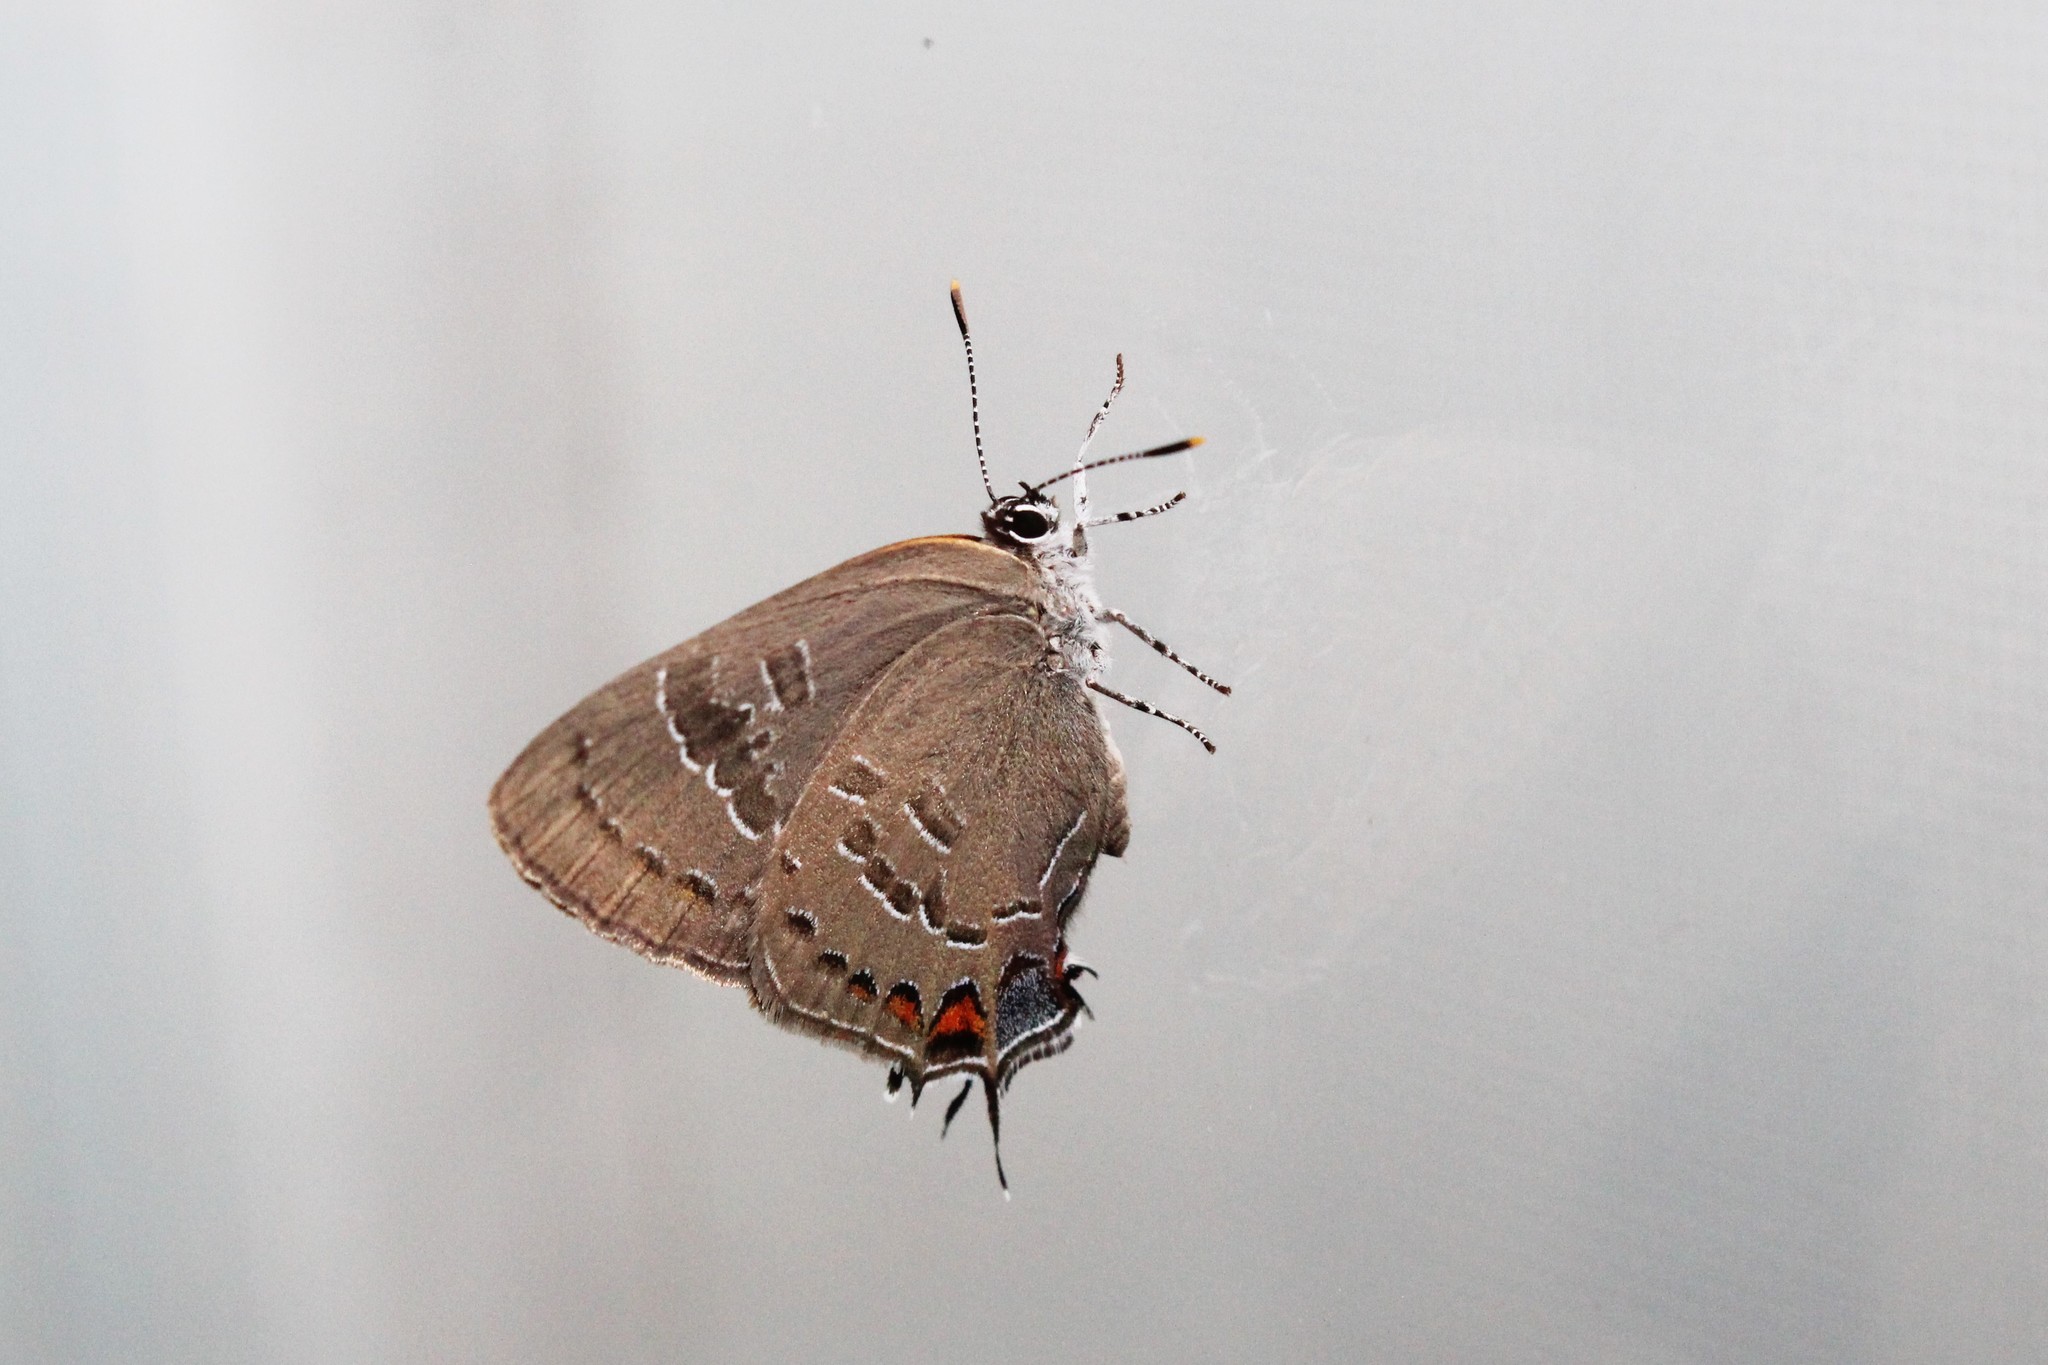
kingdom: Animalia
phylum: Arthropoda
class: Insecta
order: Lepidoptera
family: Lycaenidae
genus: Satyrium
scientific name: Satyrium calanus
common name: Banded hairstreak
